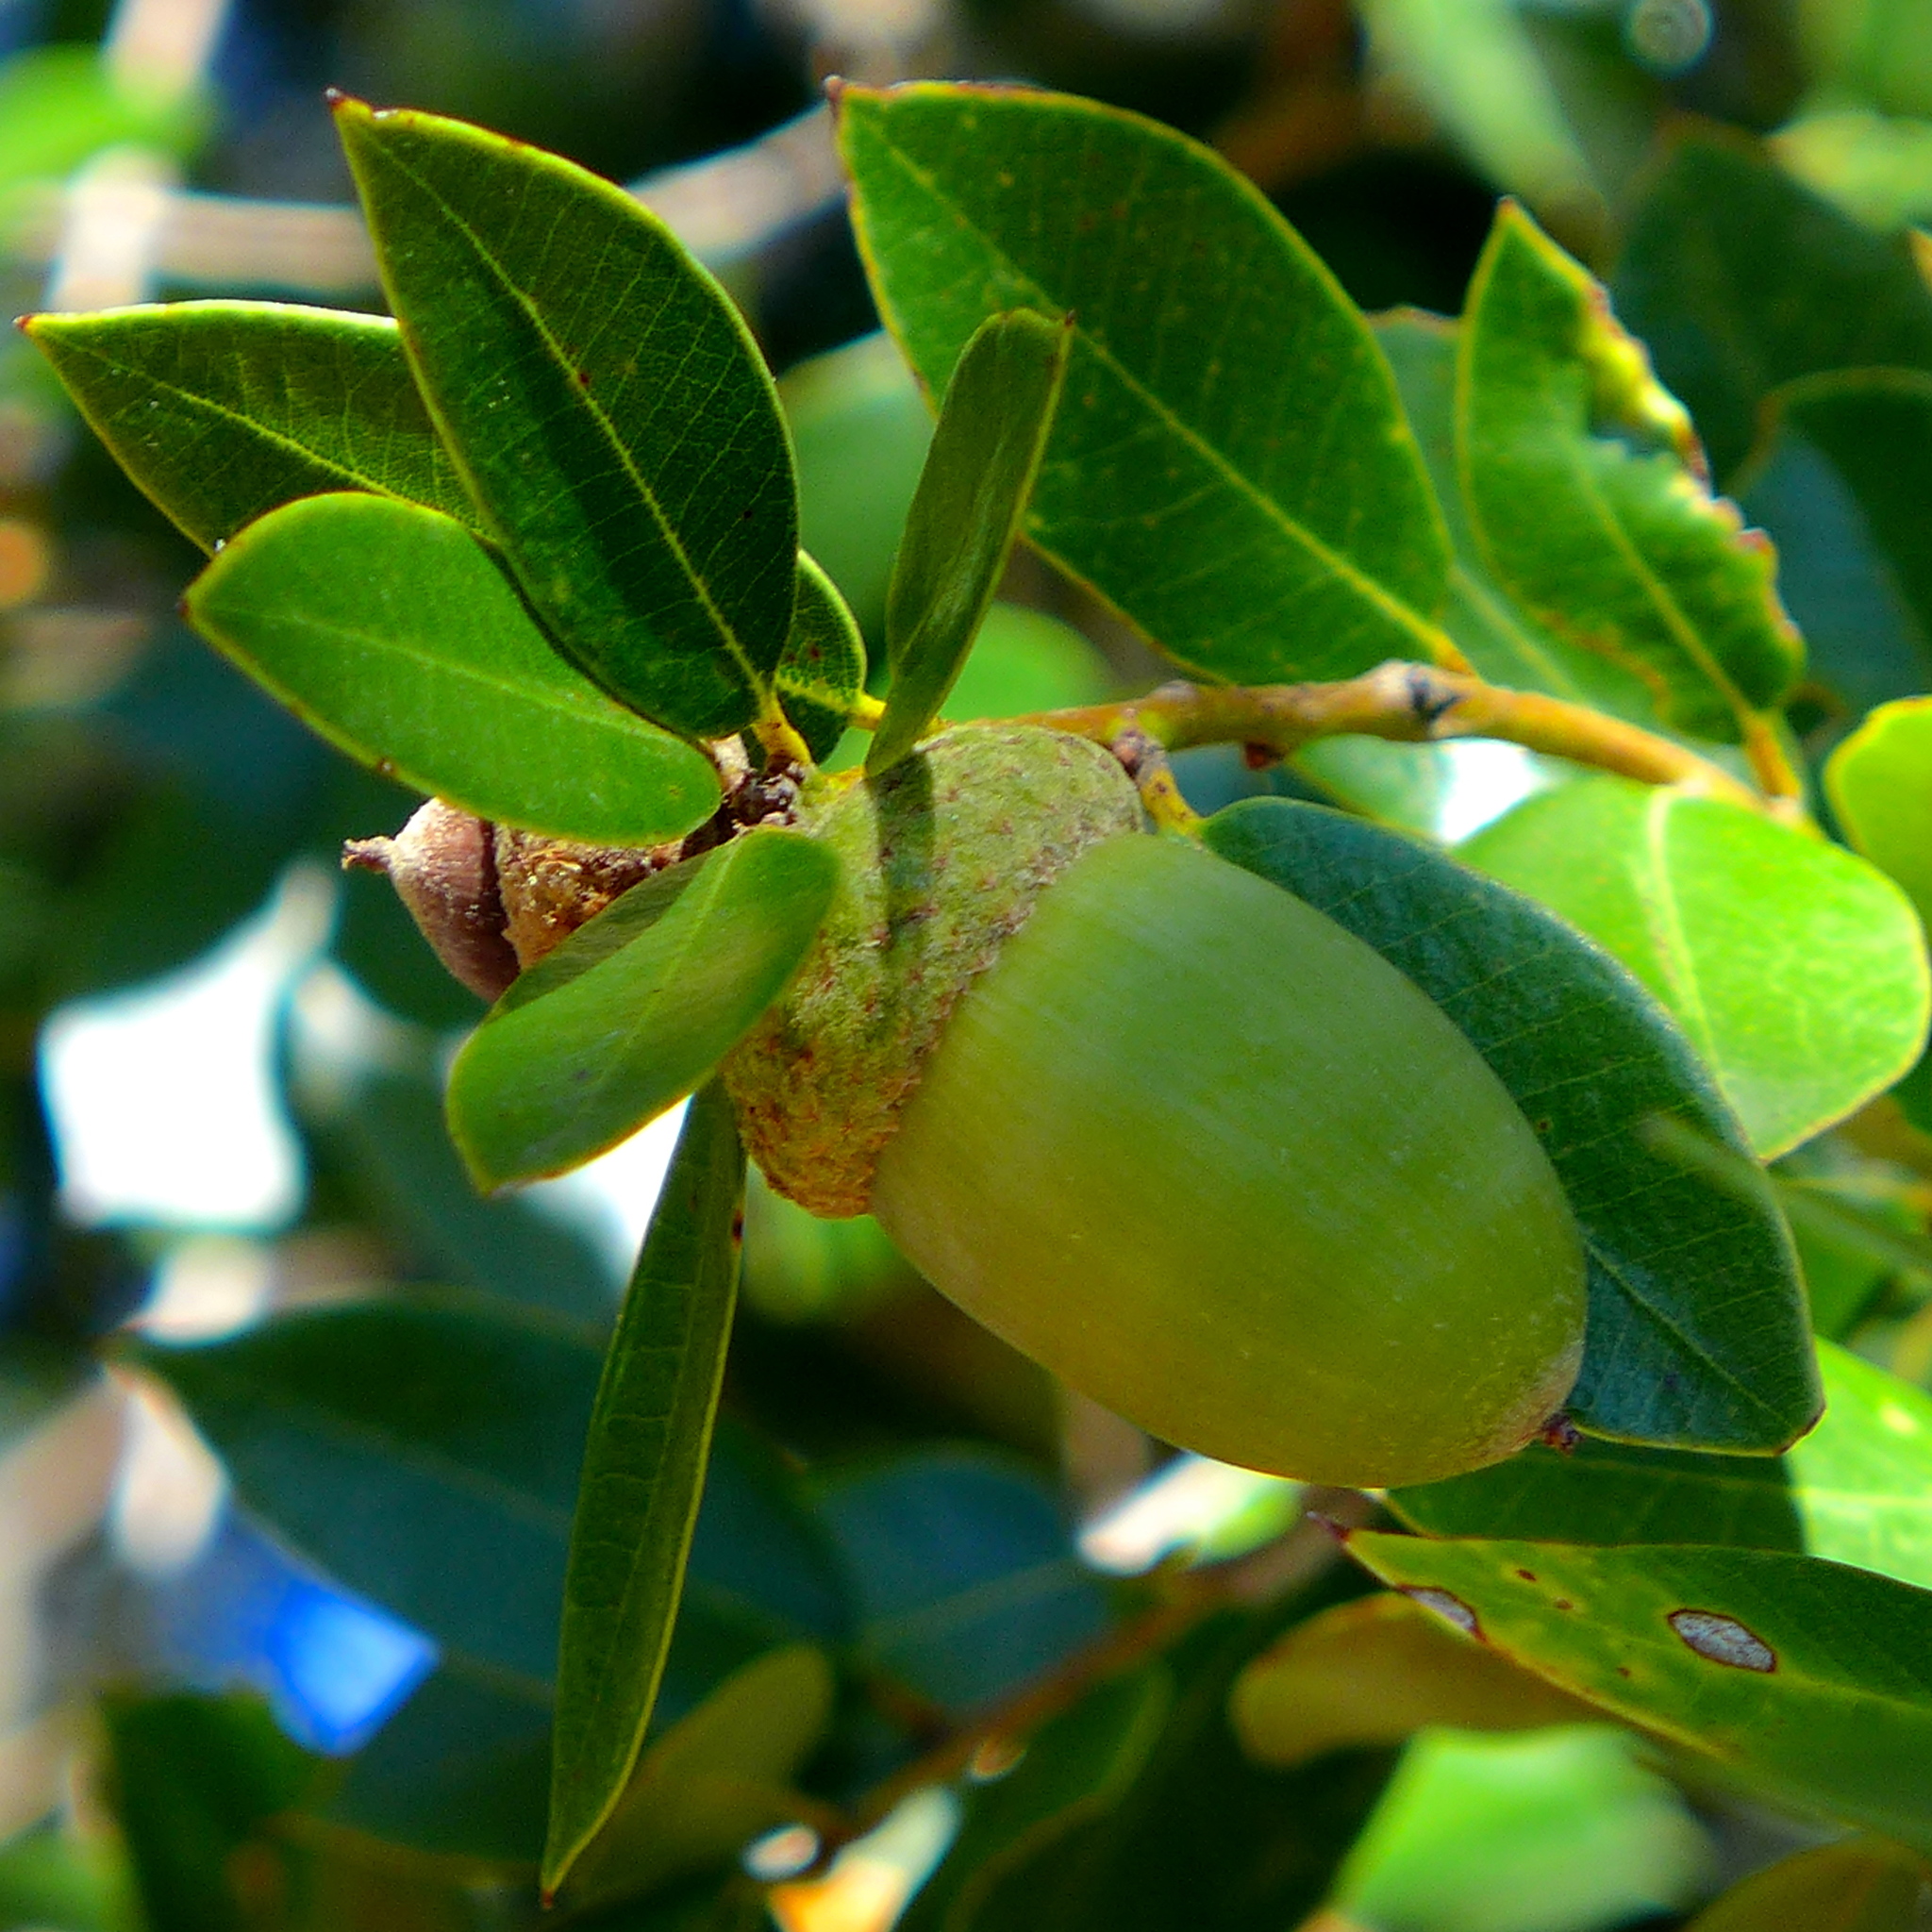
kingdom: Plantae
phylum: Tracheophyta
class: Magnoliopsida
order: Fagales
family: Fagaceae
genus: Quercus
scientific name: Quercus chrysolepis
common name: Canyon live oak
